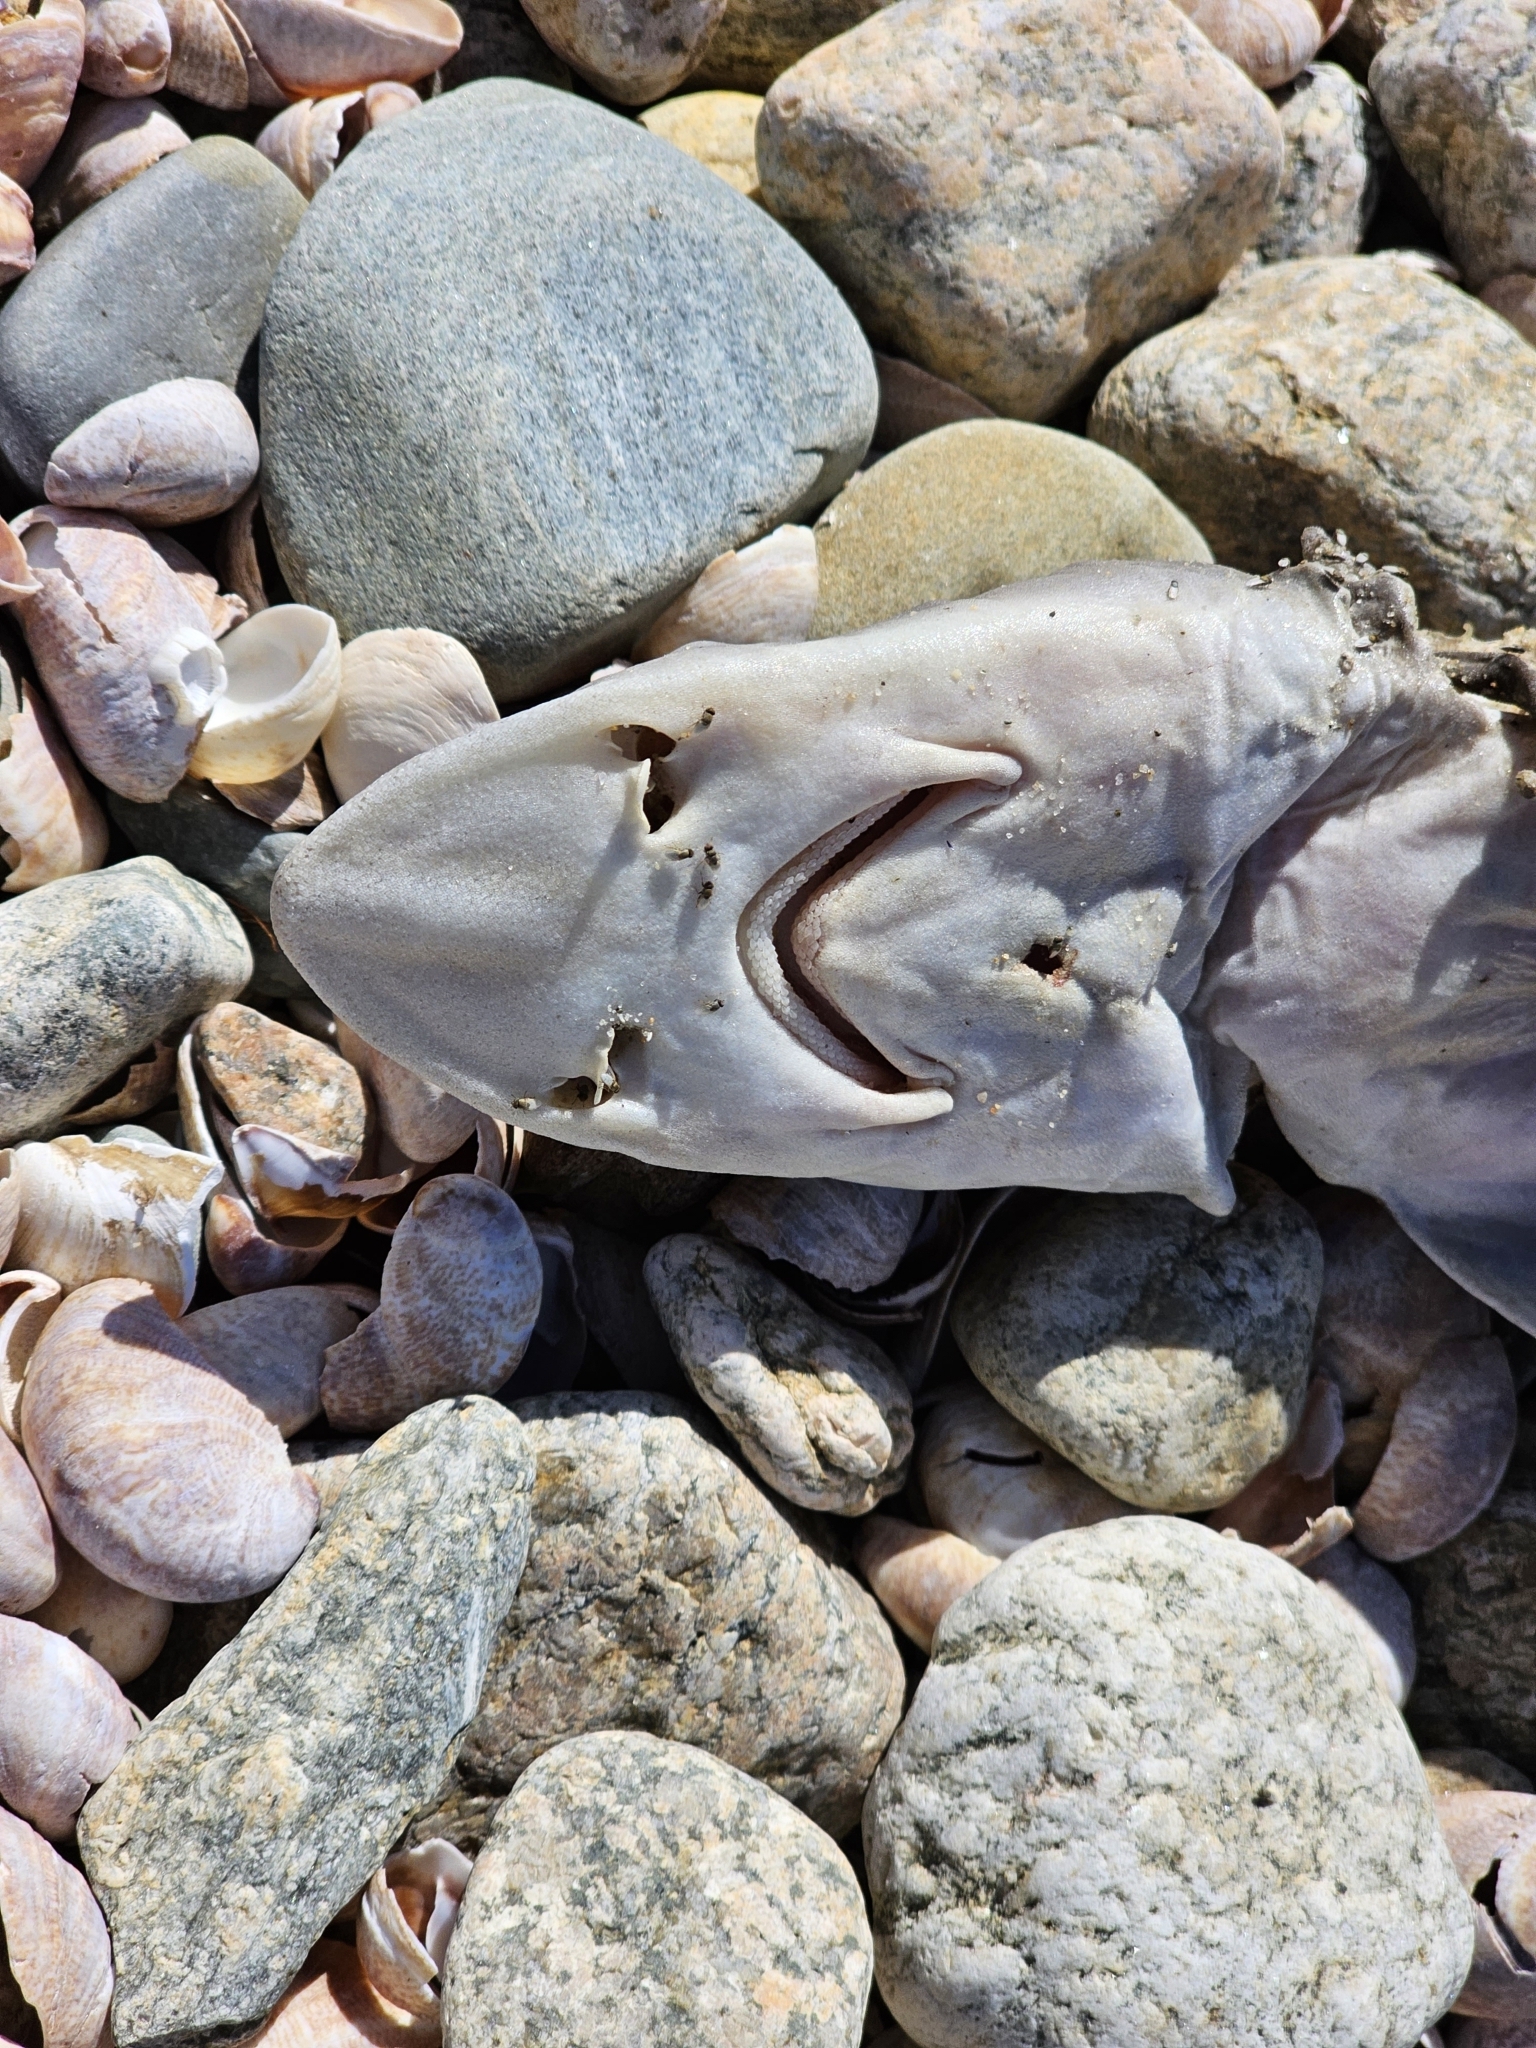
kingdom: Animalia
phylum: Chordata
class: Elasmobranchii
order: Carcharhiniformes
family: Triakidae
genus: Mustelus
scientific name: Mustelus canis
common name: Smooth dogfish
